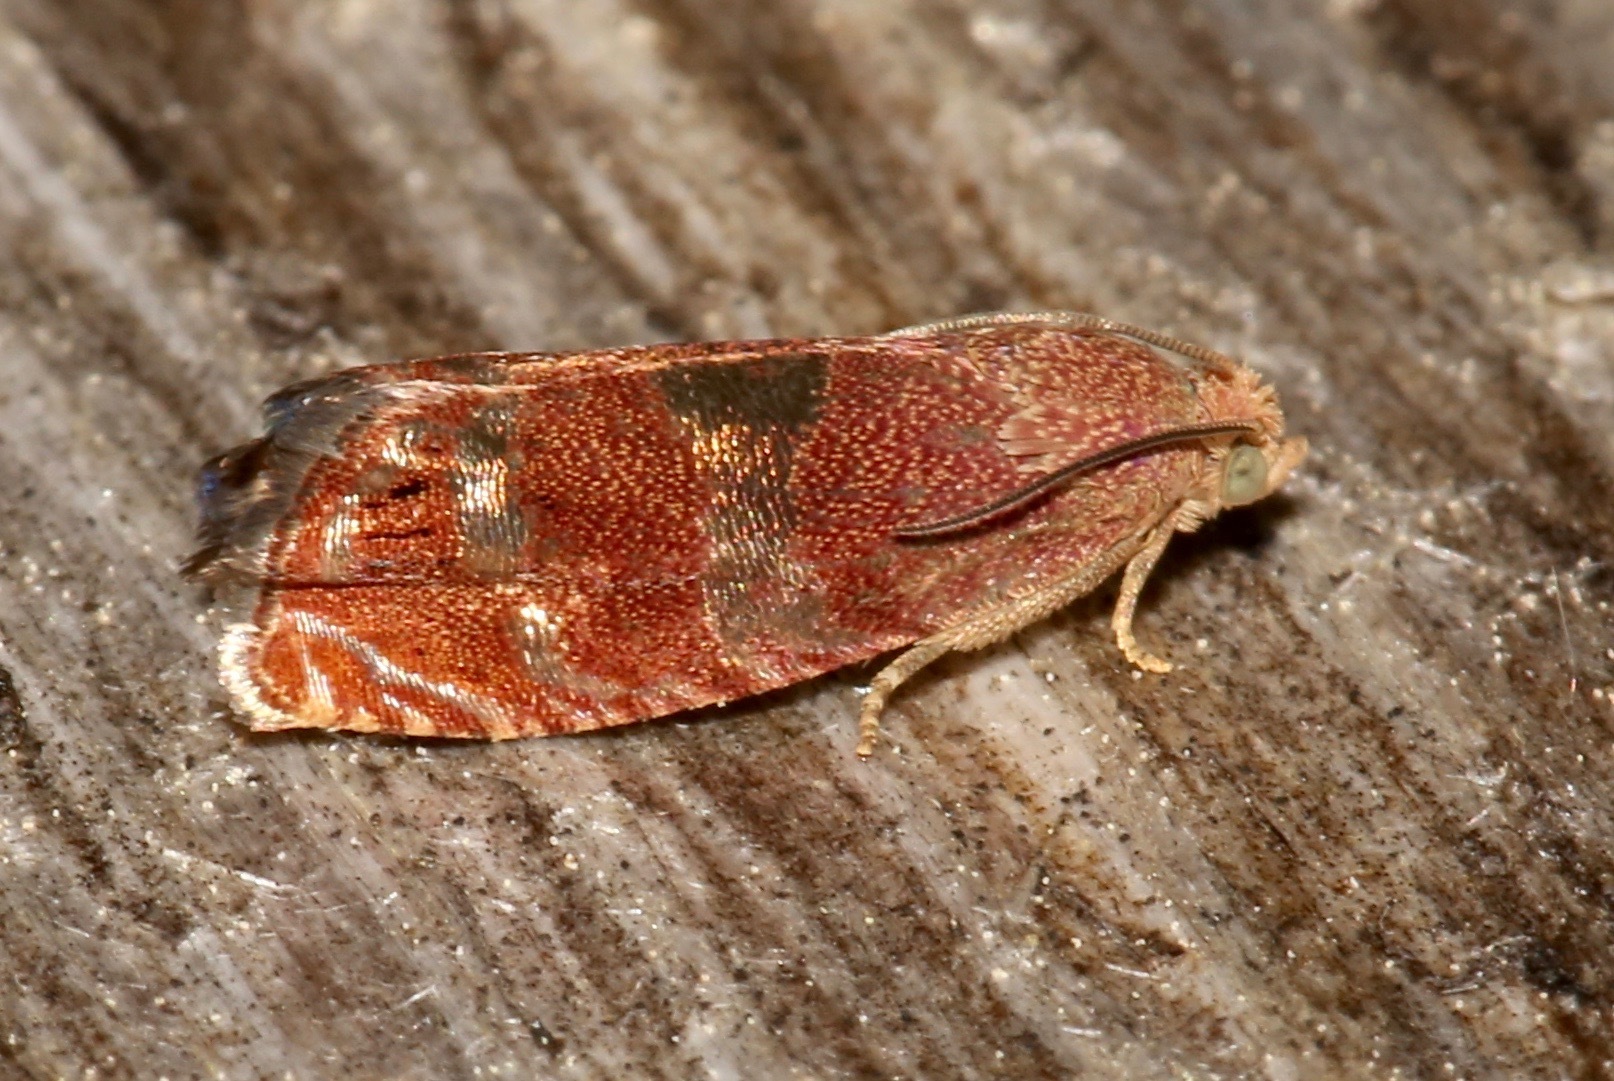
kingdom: Animalia
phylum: Arthropoda
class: Insecta
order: Lepidoptera
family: Tortricidae
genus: Cydia
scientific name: Cydia latiferreana
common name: Filbertworm moth
